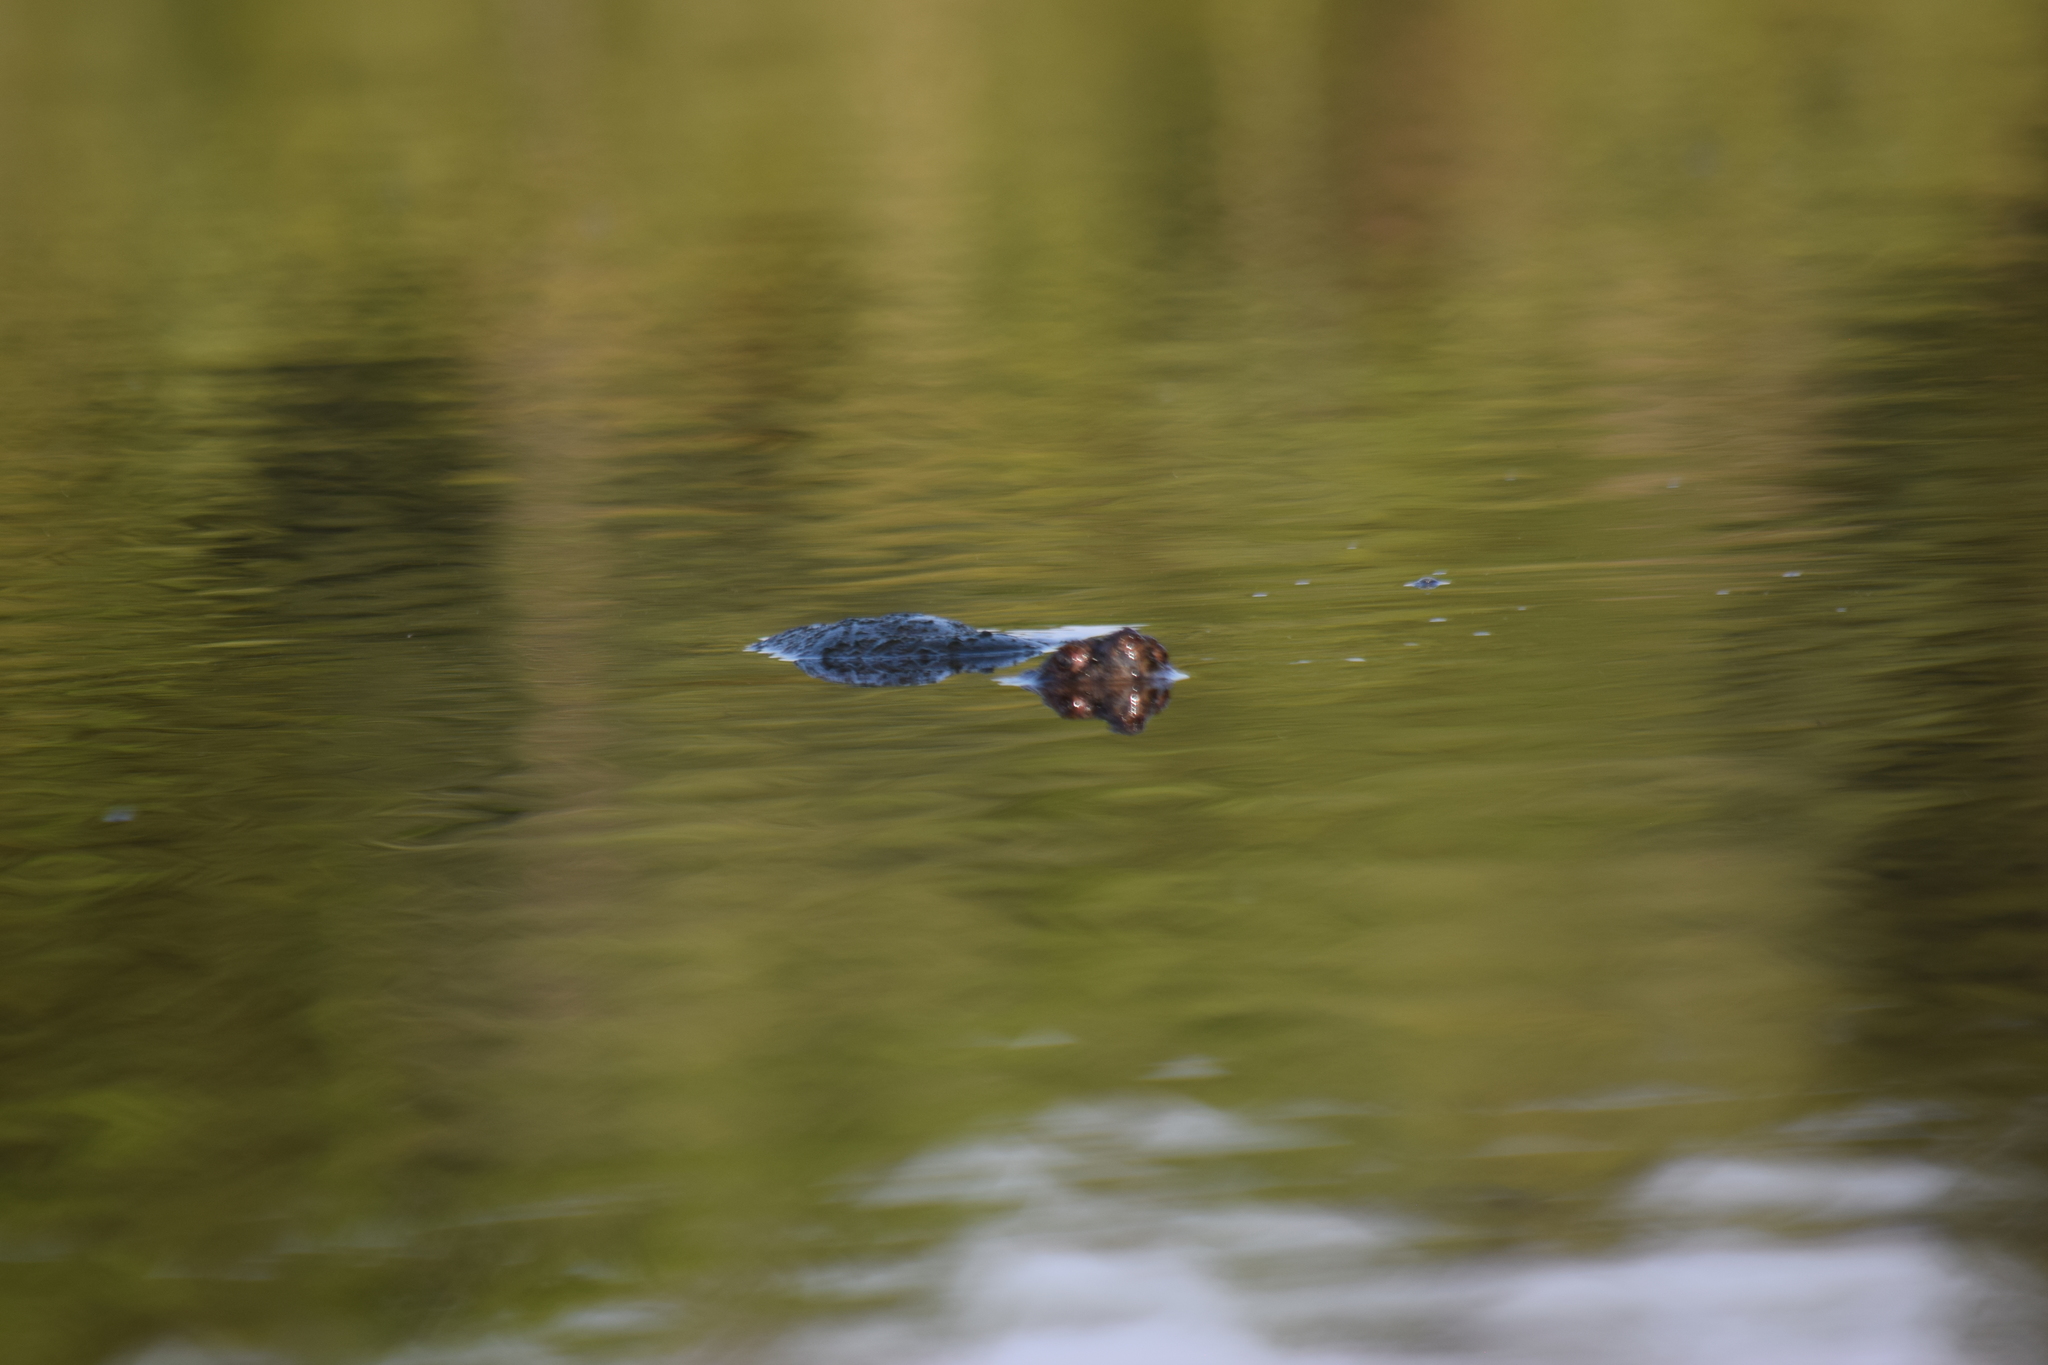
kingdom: Animalia
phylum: Chordata
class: Testudines
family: Chelydridae
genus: Chelydra
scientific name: Chelydra serpentina
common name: Common snapping turtle
